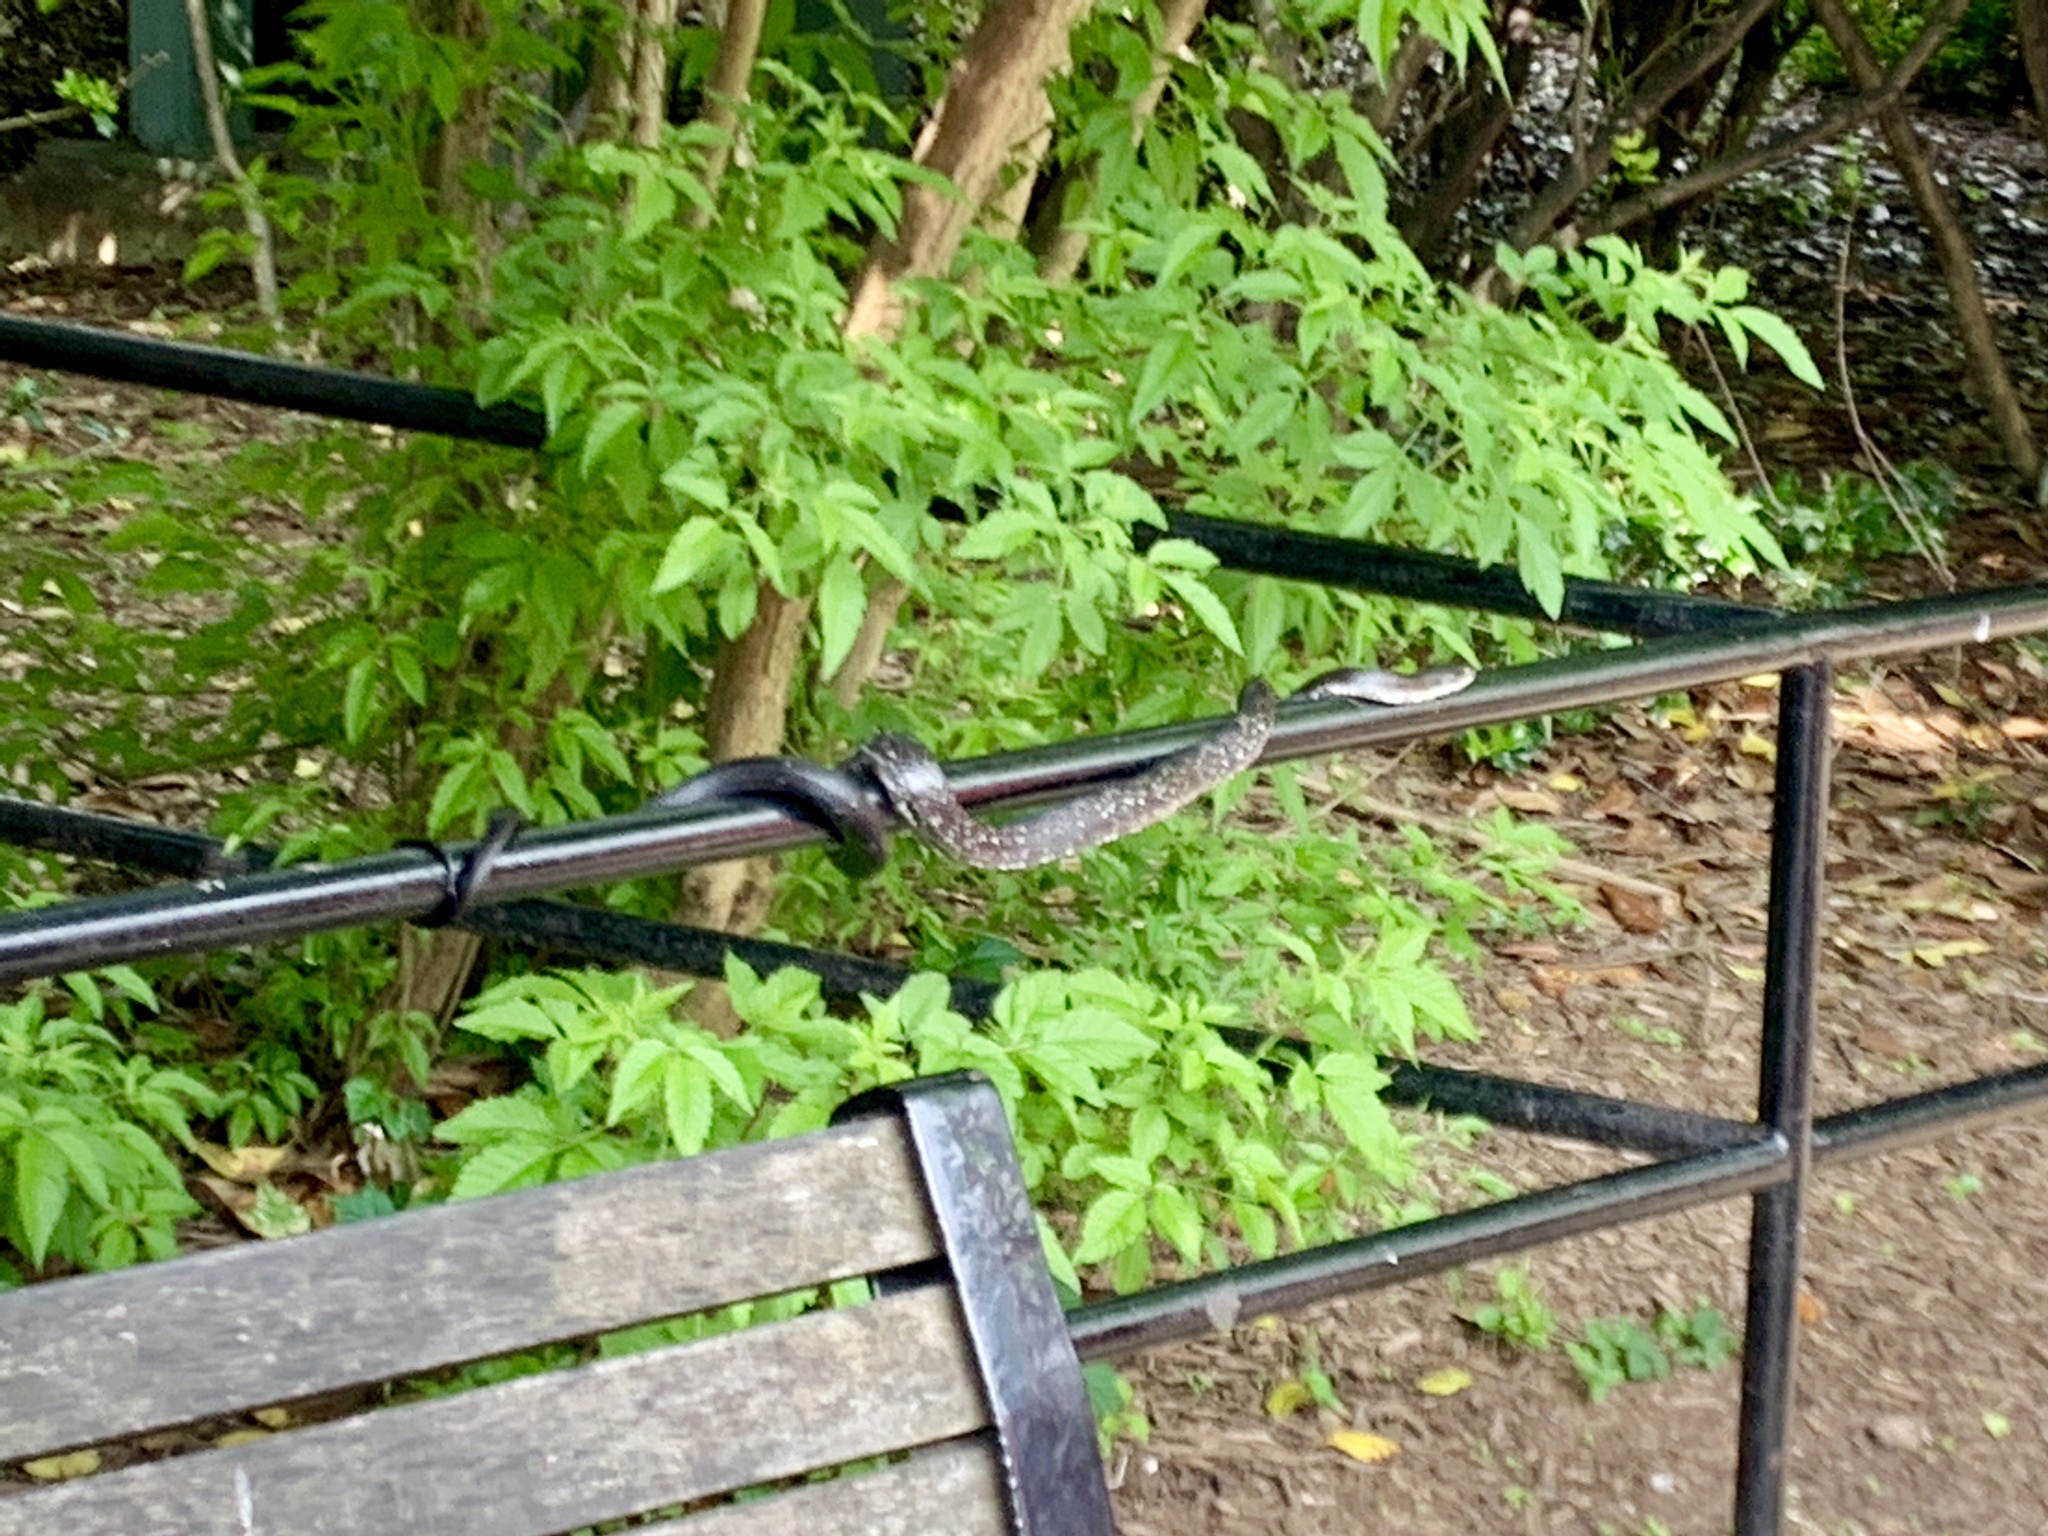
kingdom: Animalia
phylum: Chordata
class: Squamata
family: Colubridae
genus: Pantherophis
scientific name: Pantherophis alleghaniensis
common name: Eastern rat snake
